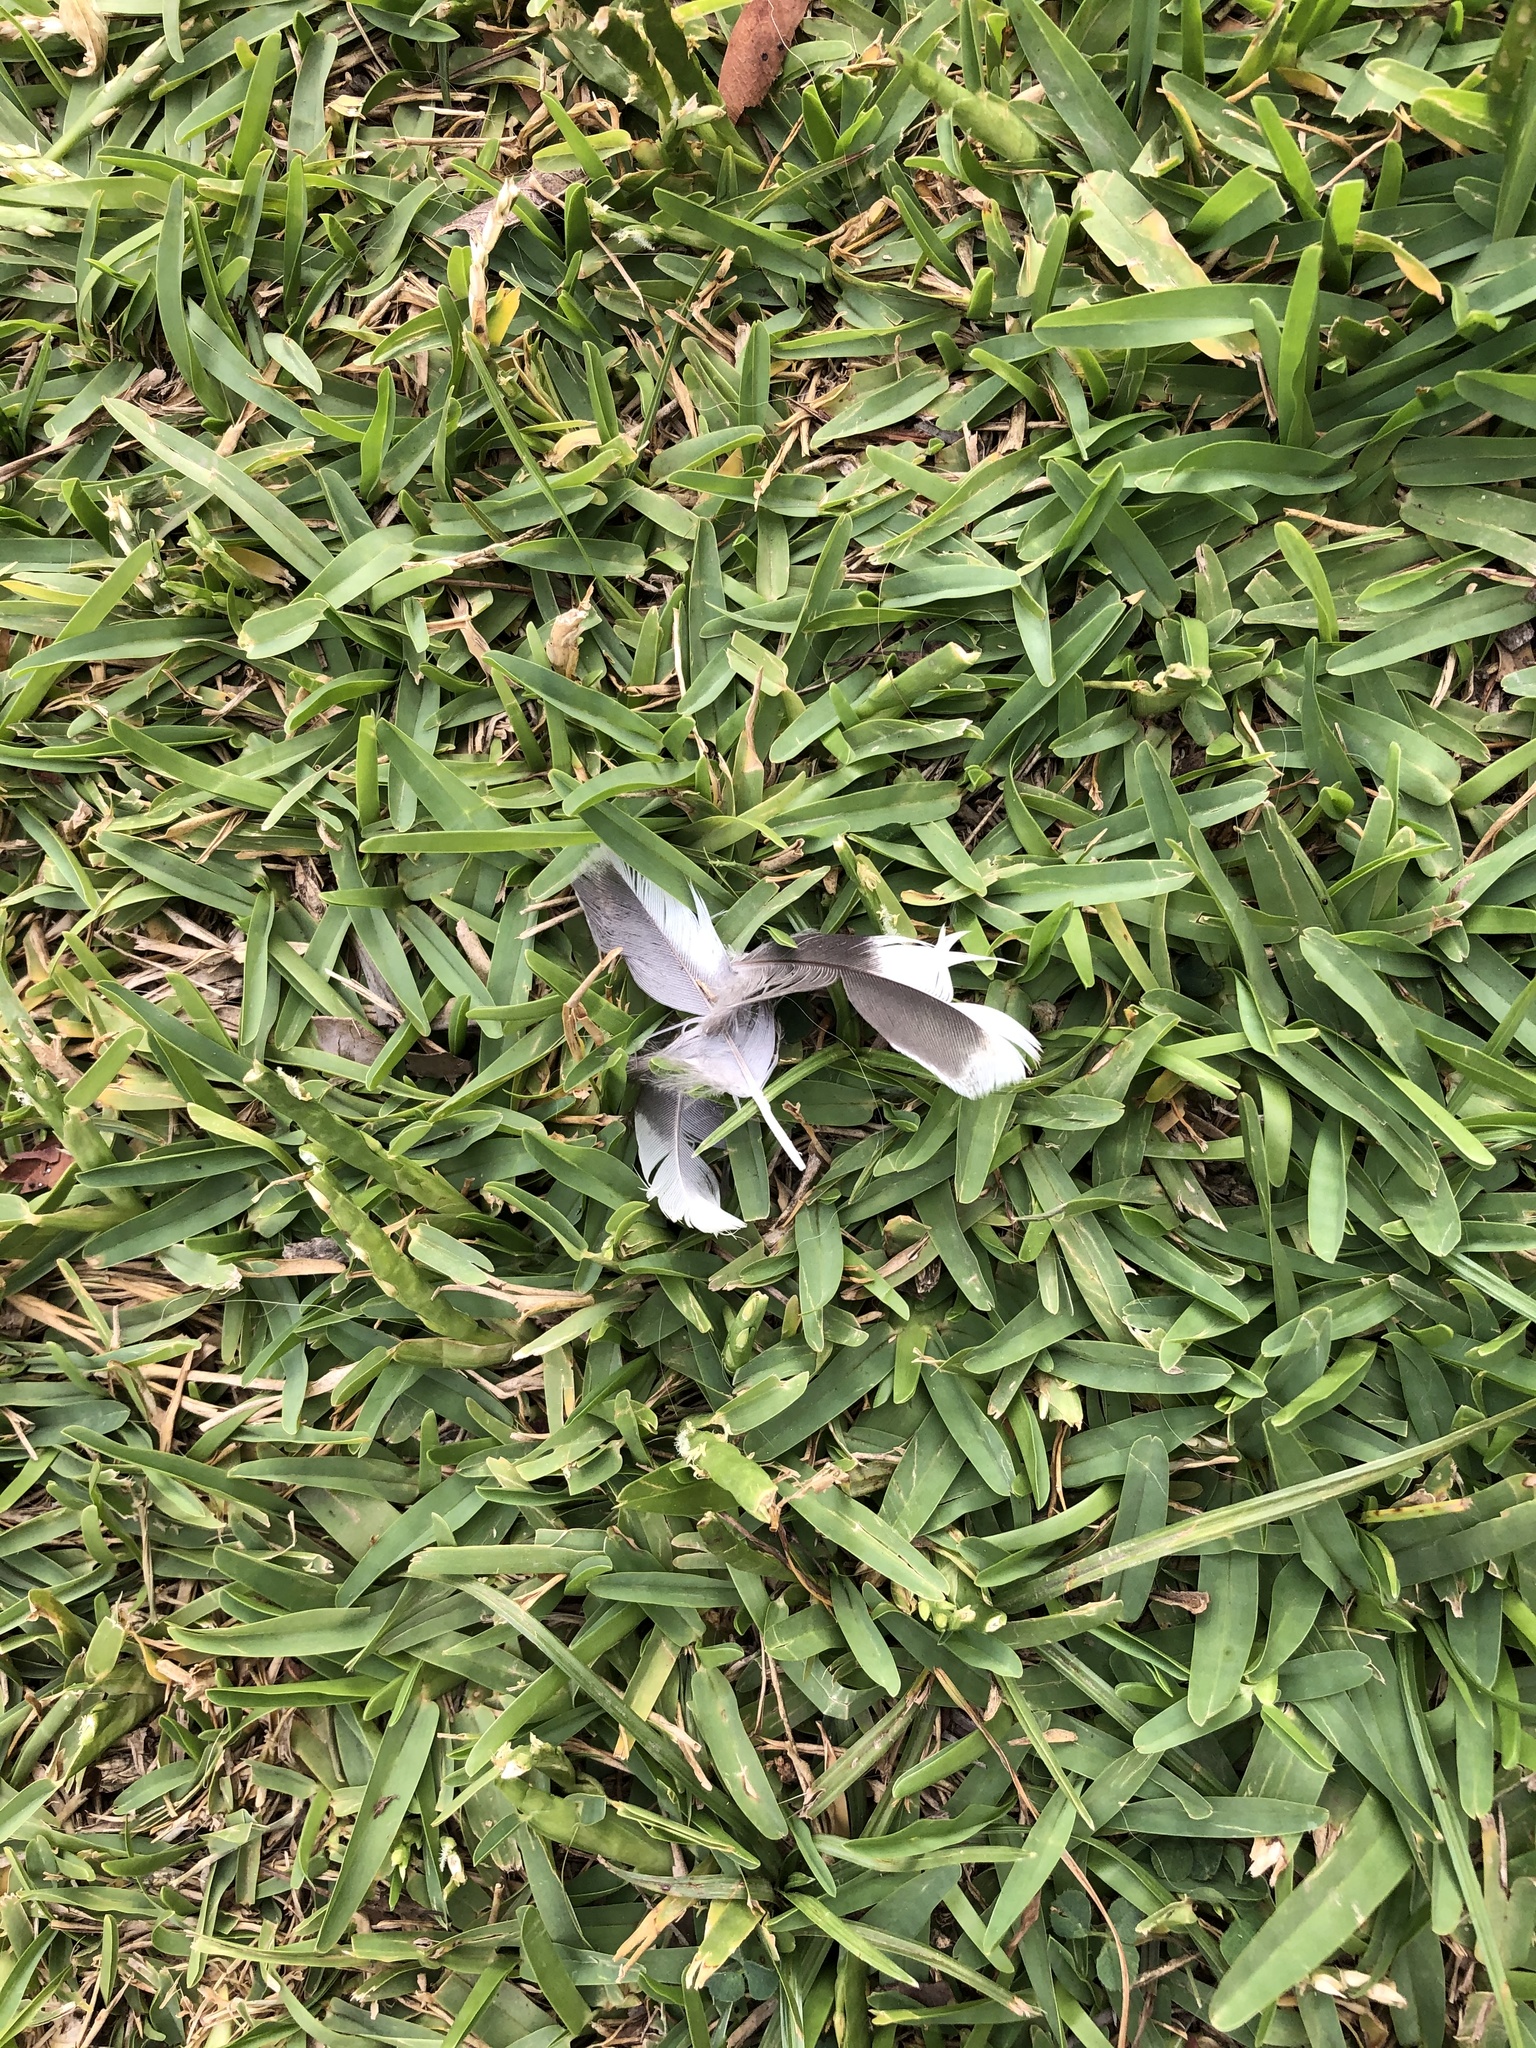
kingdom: Animalia
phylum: Chordata
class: Aves
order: Columbiformes
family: Columbidae
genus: Zenaida
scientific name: Zenaida meloda
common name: West peruvian dove
